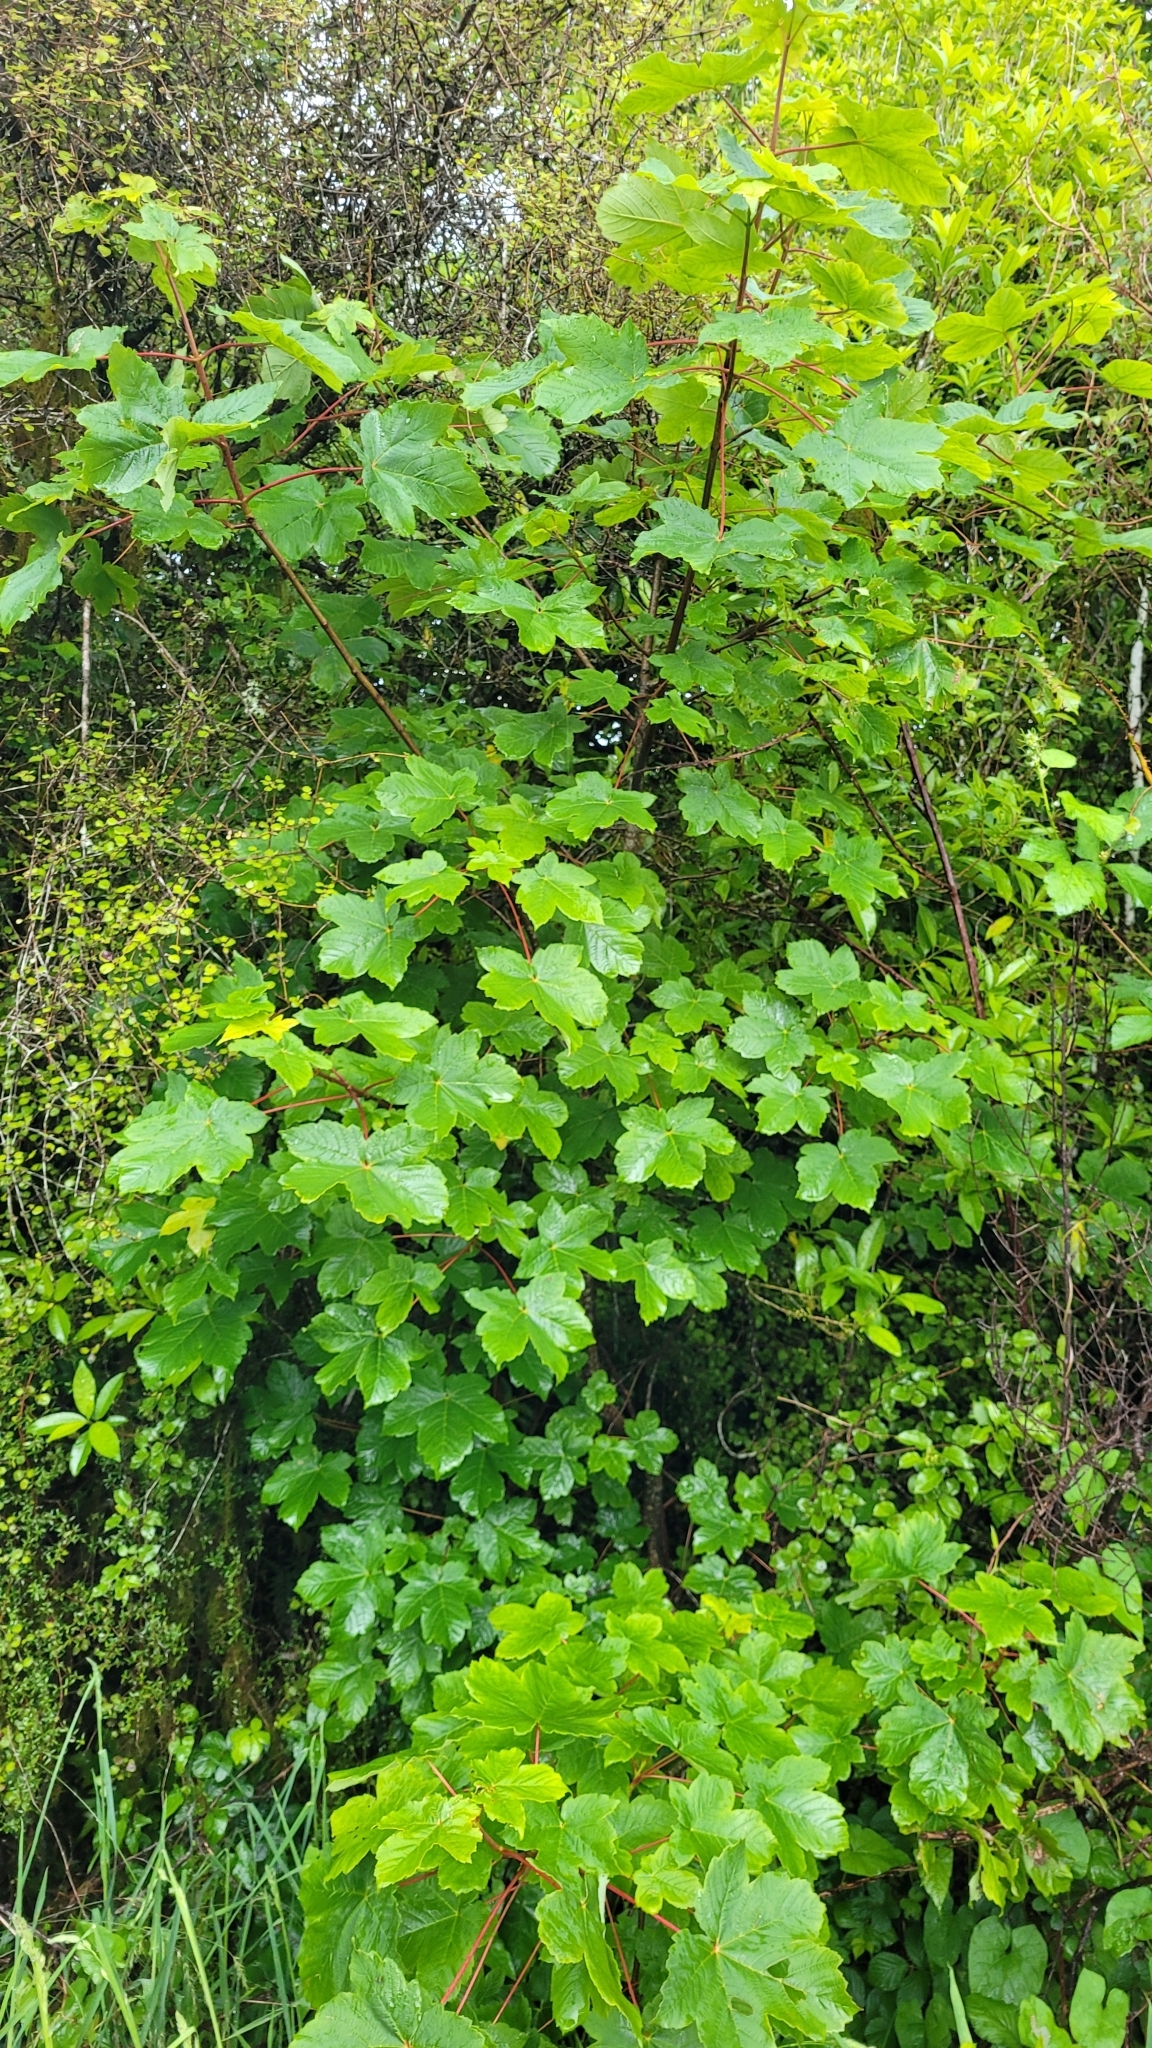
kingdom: Plantae
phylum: Tracheophyta
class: Magnoliopsida
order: Sapindales
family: Sapindaceae
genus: Acer
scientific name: Acer pseudoplatanus
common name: Sycamore
